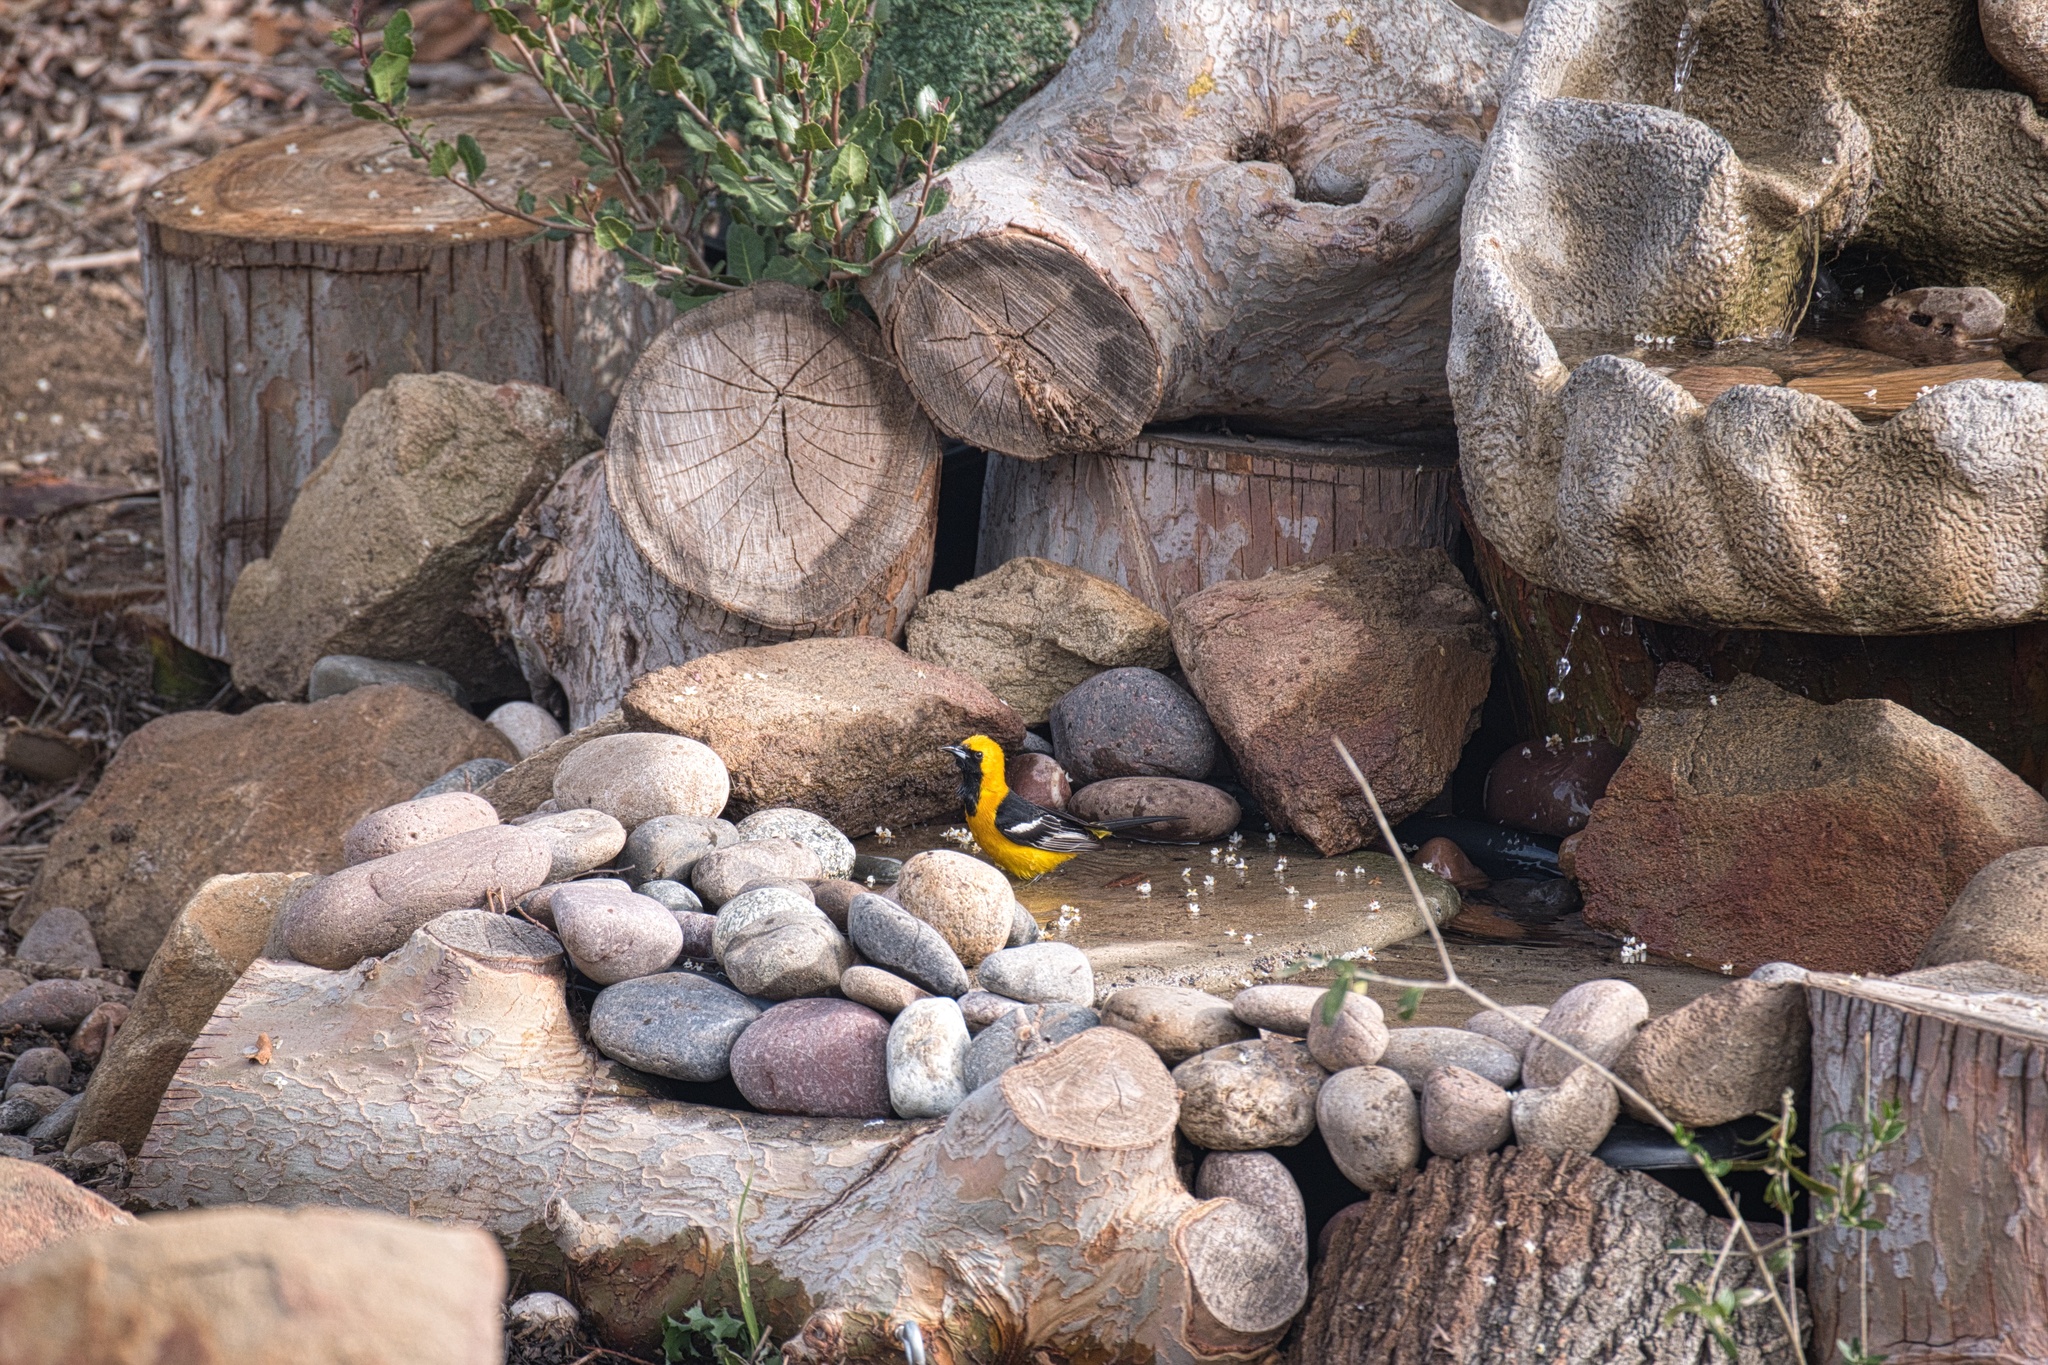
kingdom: Animalia
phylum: Chordata
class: Aves
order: Passeriformes
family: Icteridae
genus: Icterus
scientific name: Icterus cucullatus
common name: Hooded oriole
